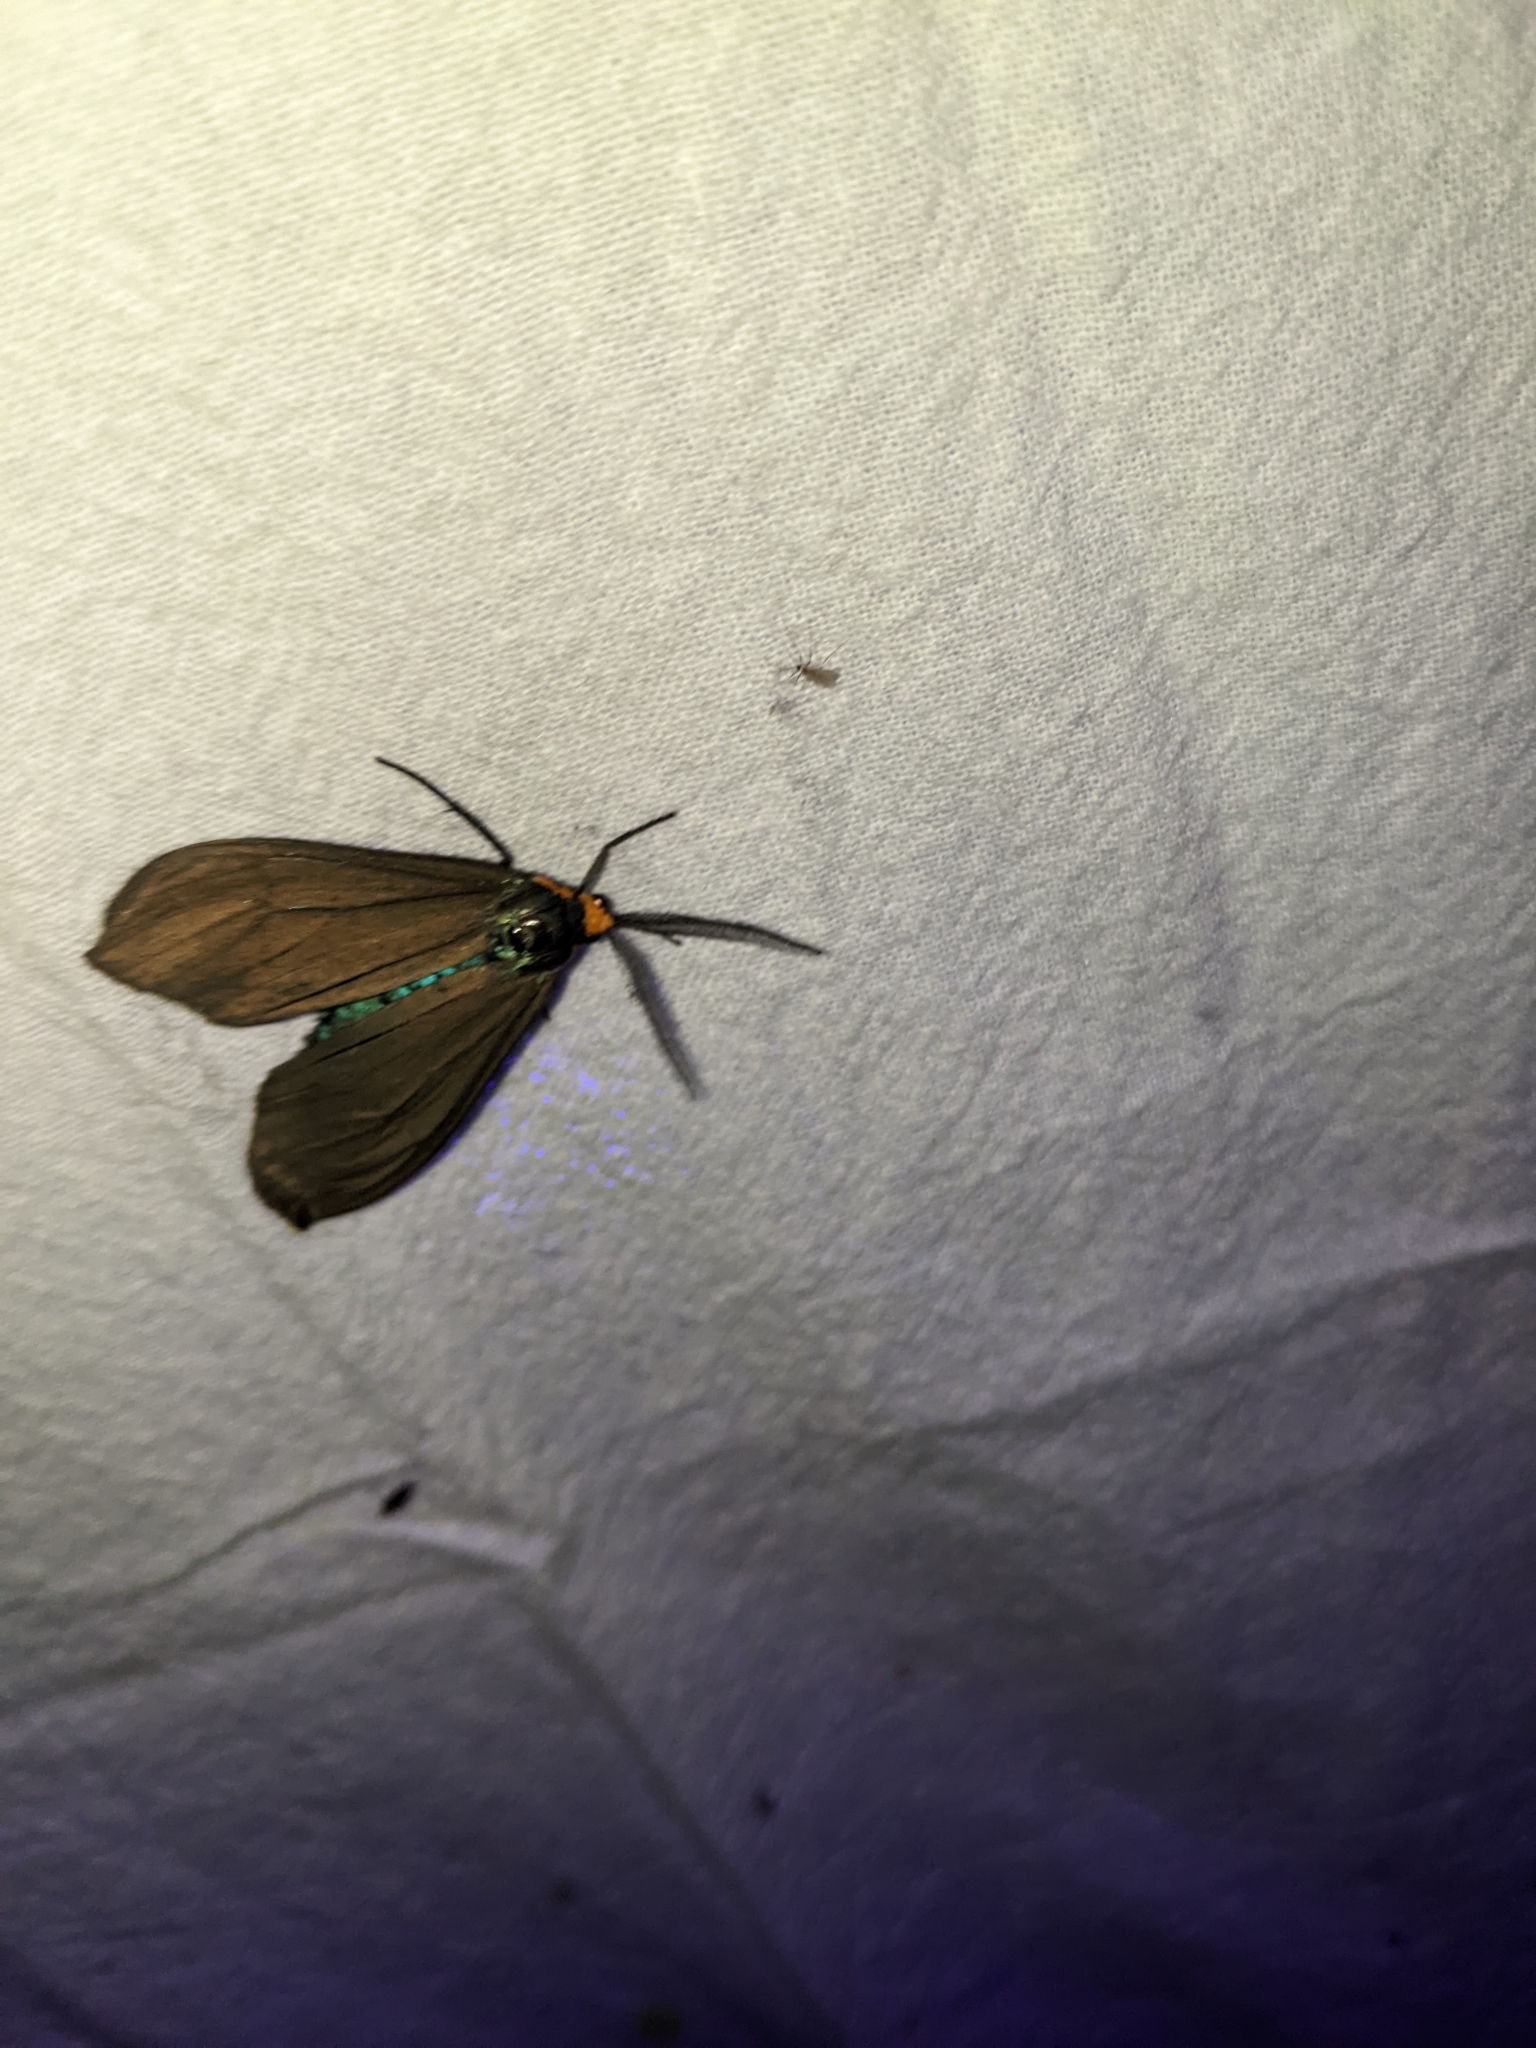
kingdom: Animalia
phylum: Arthropoda
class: Insecta
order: Lepidoptera
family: Erebidae
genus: Ctenucha
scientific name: Ctenucha virginica
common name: Virginia ctenucha moth
